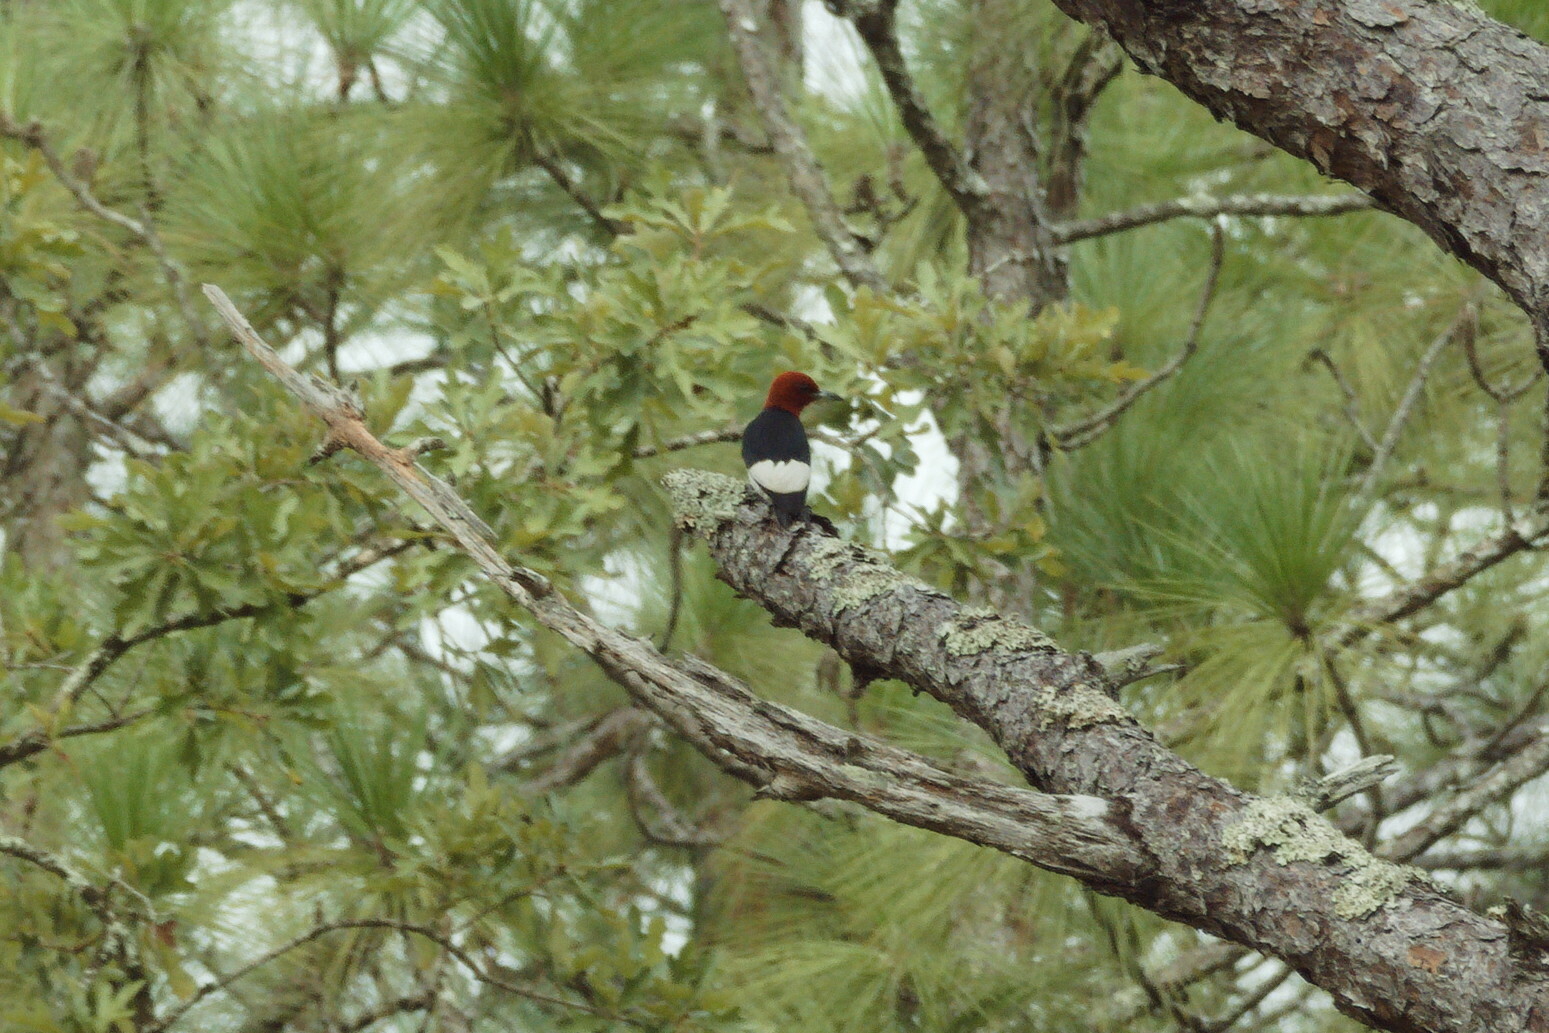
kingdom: Animalia
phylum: Chordata
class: Aves
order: Piciformes
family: Picidae
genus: Melanerpes
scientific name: Melanerpes erythrocephalus
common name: Red-headed woodpecker
